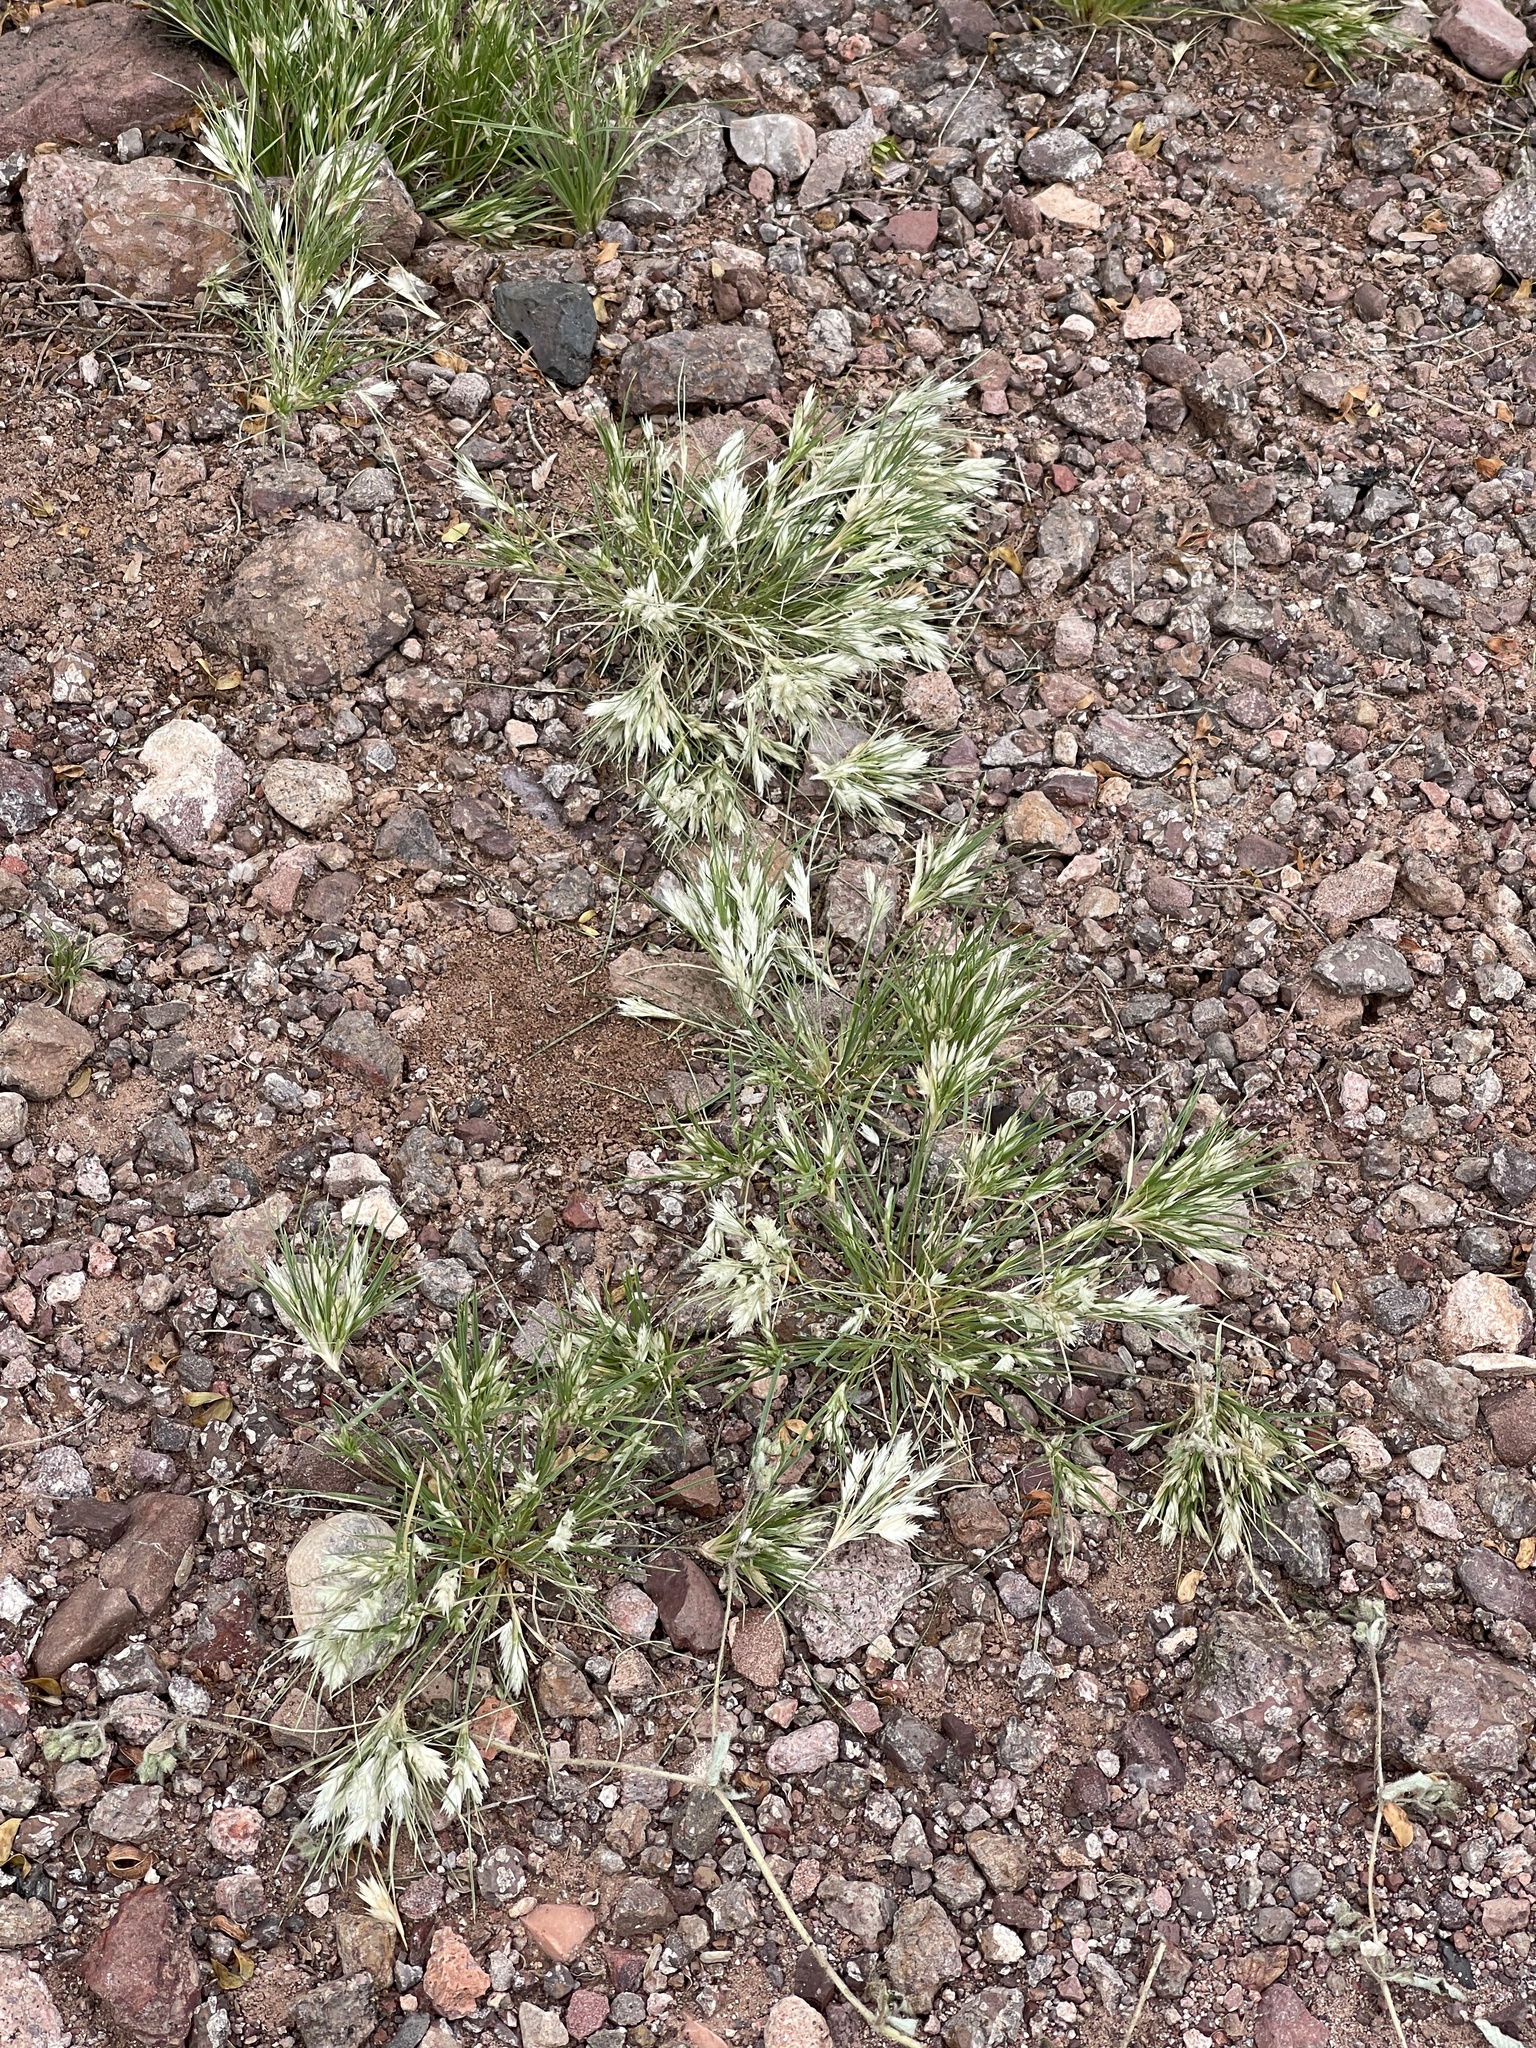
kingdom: Plantae
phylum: Tracheophyta
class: Liliopsida
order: Poales
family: Poaceae
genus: Dasyochloa
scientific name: Dasyochloa pulchella
